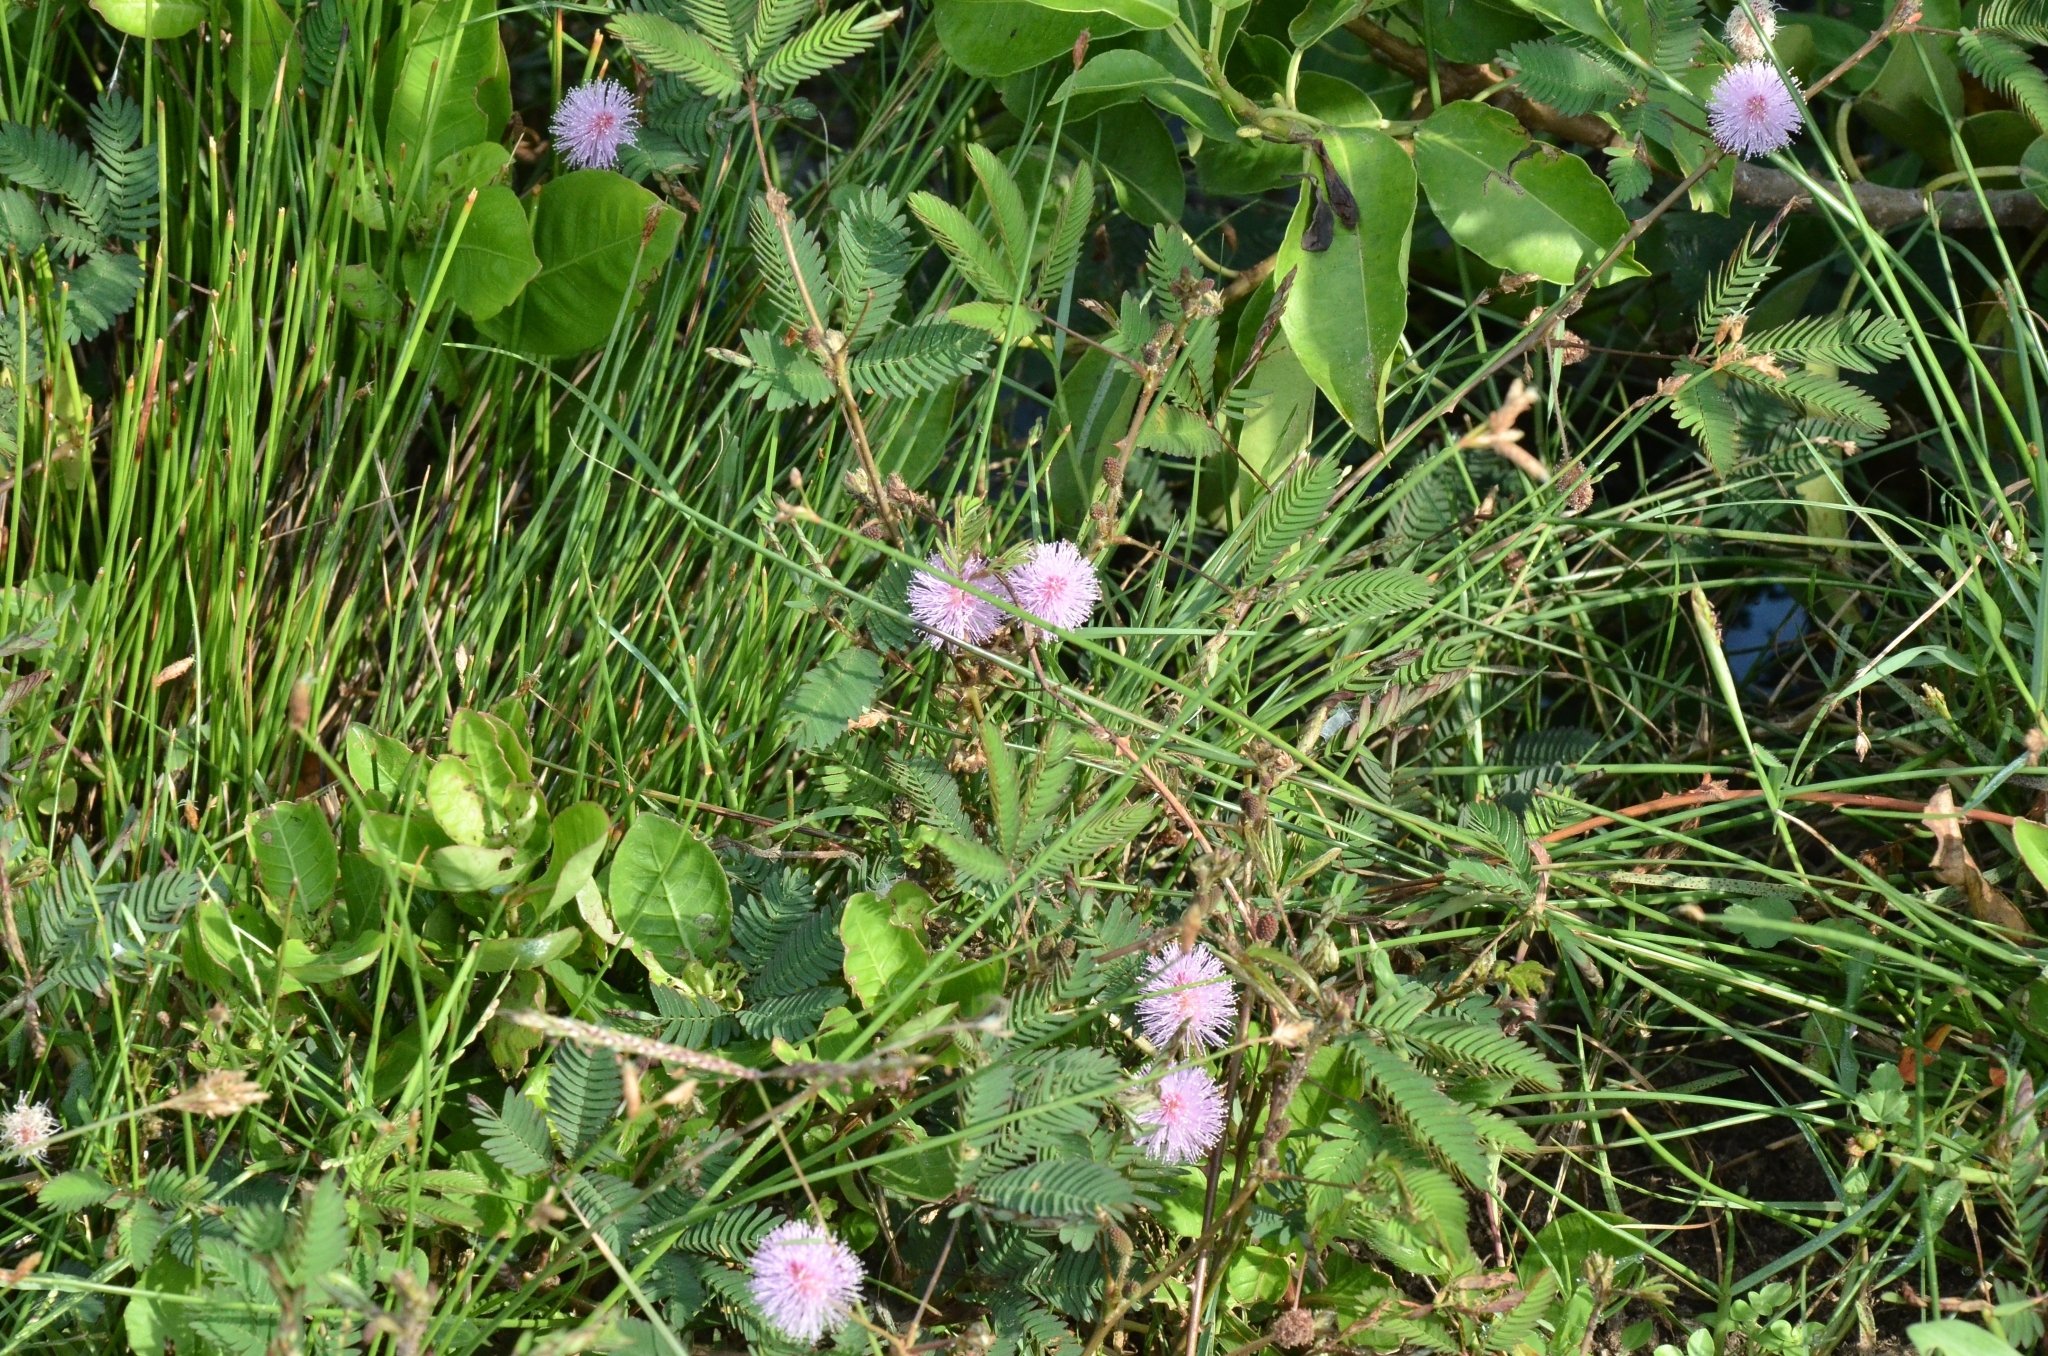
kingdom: Plantae
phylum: Tracheophyta
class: Magnoliopsida
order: Fabales
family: Fabaceae
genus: Mimosa
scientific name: Mimosa pudica
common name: Sensitive plant
